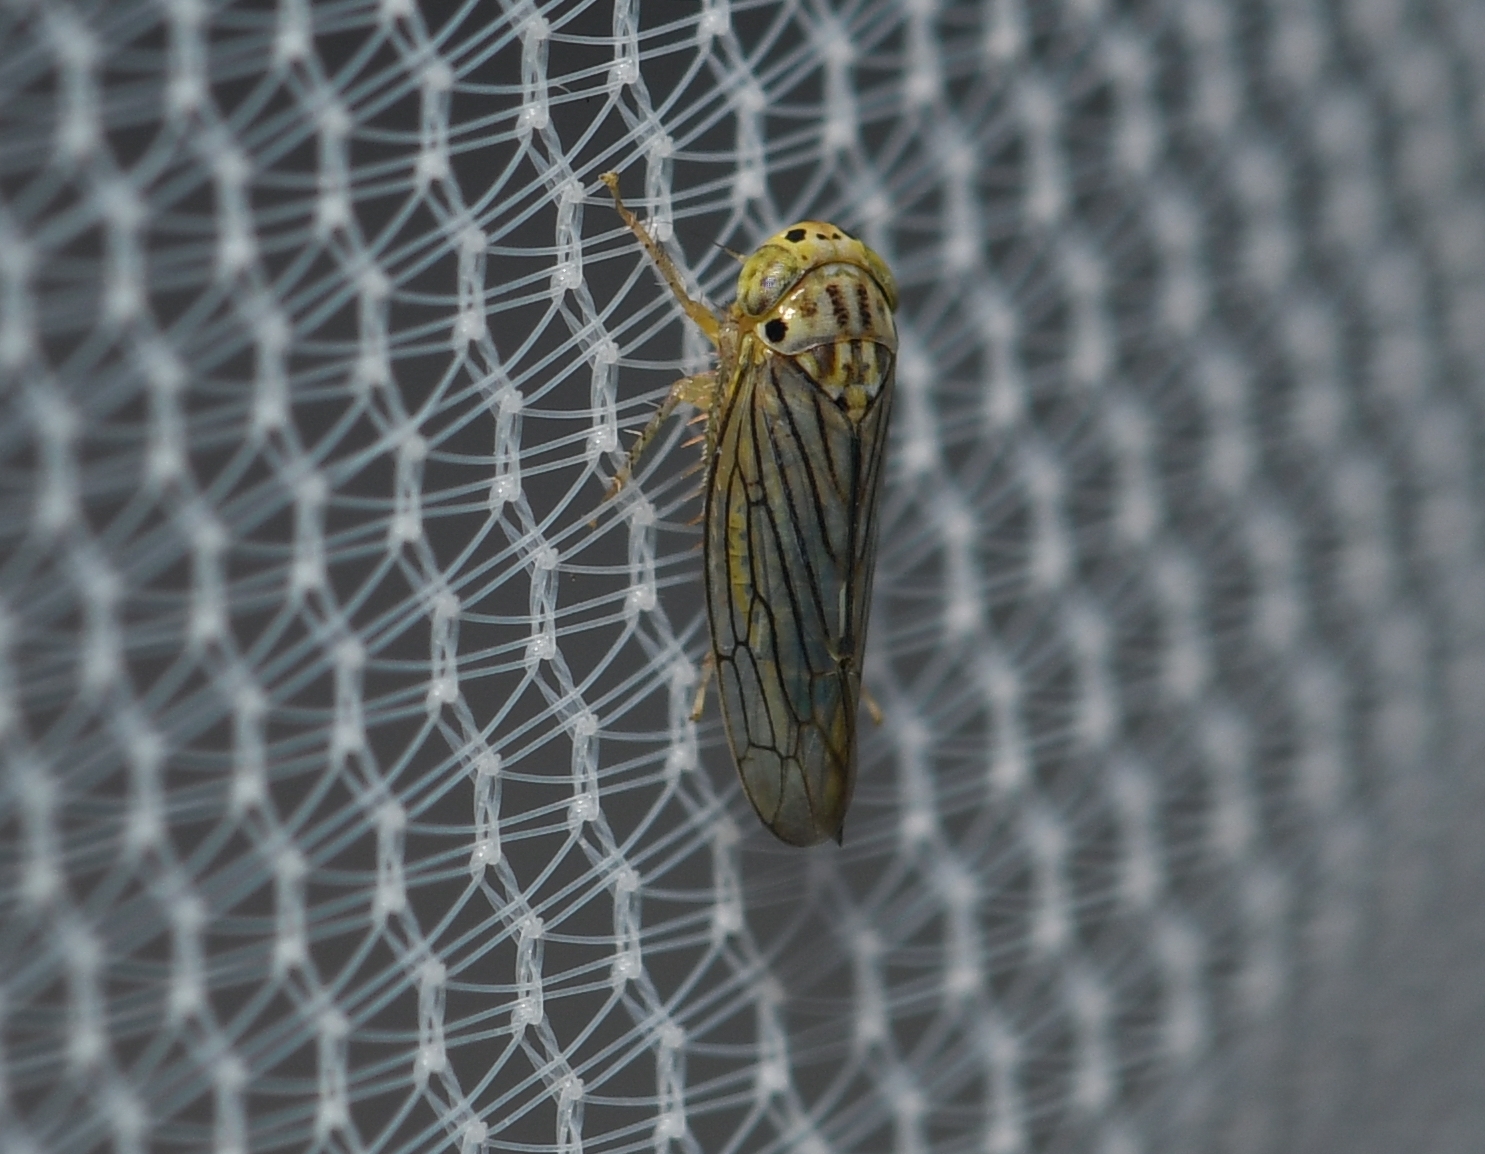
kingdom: Animalia
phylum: Arthropoda
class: Insecta
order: Hemiptera
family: Cicadellidae
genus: Ollarianus
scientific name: Ollarianus armus
